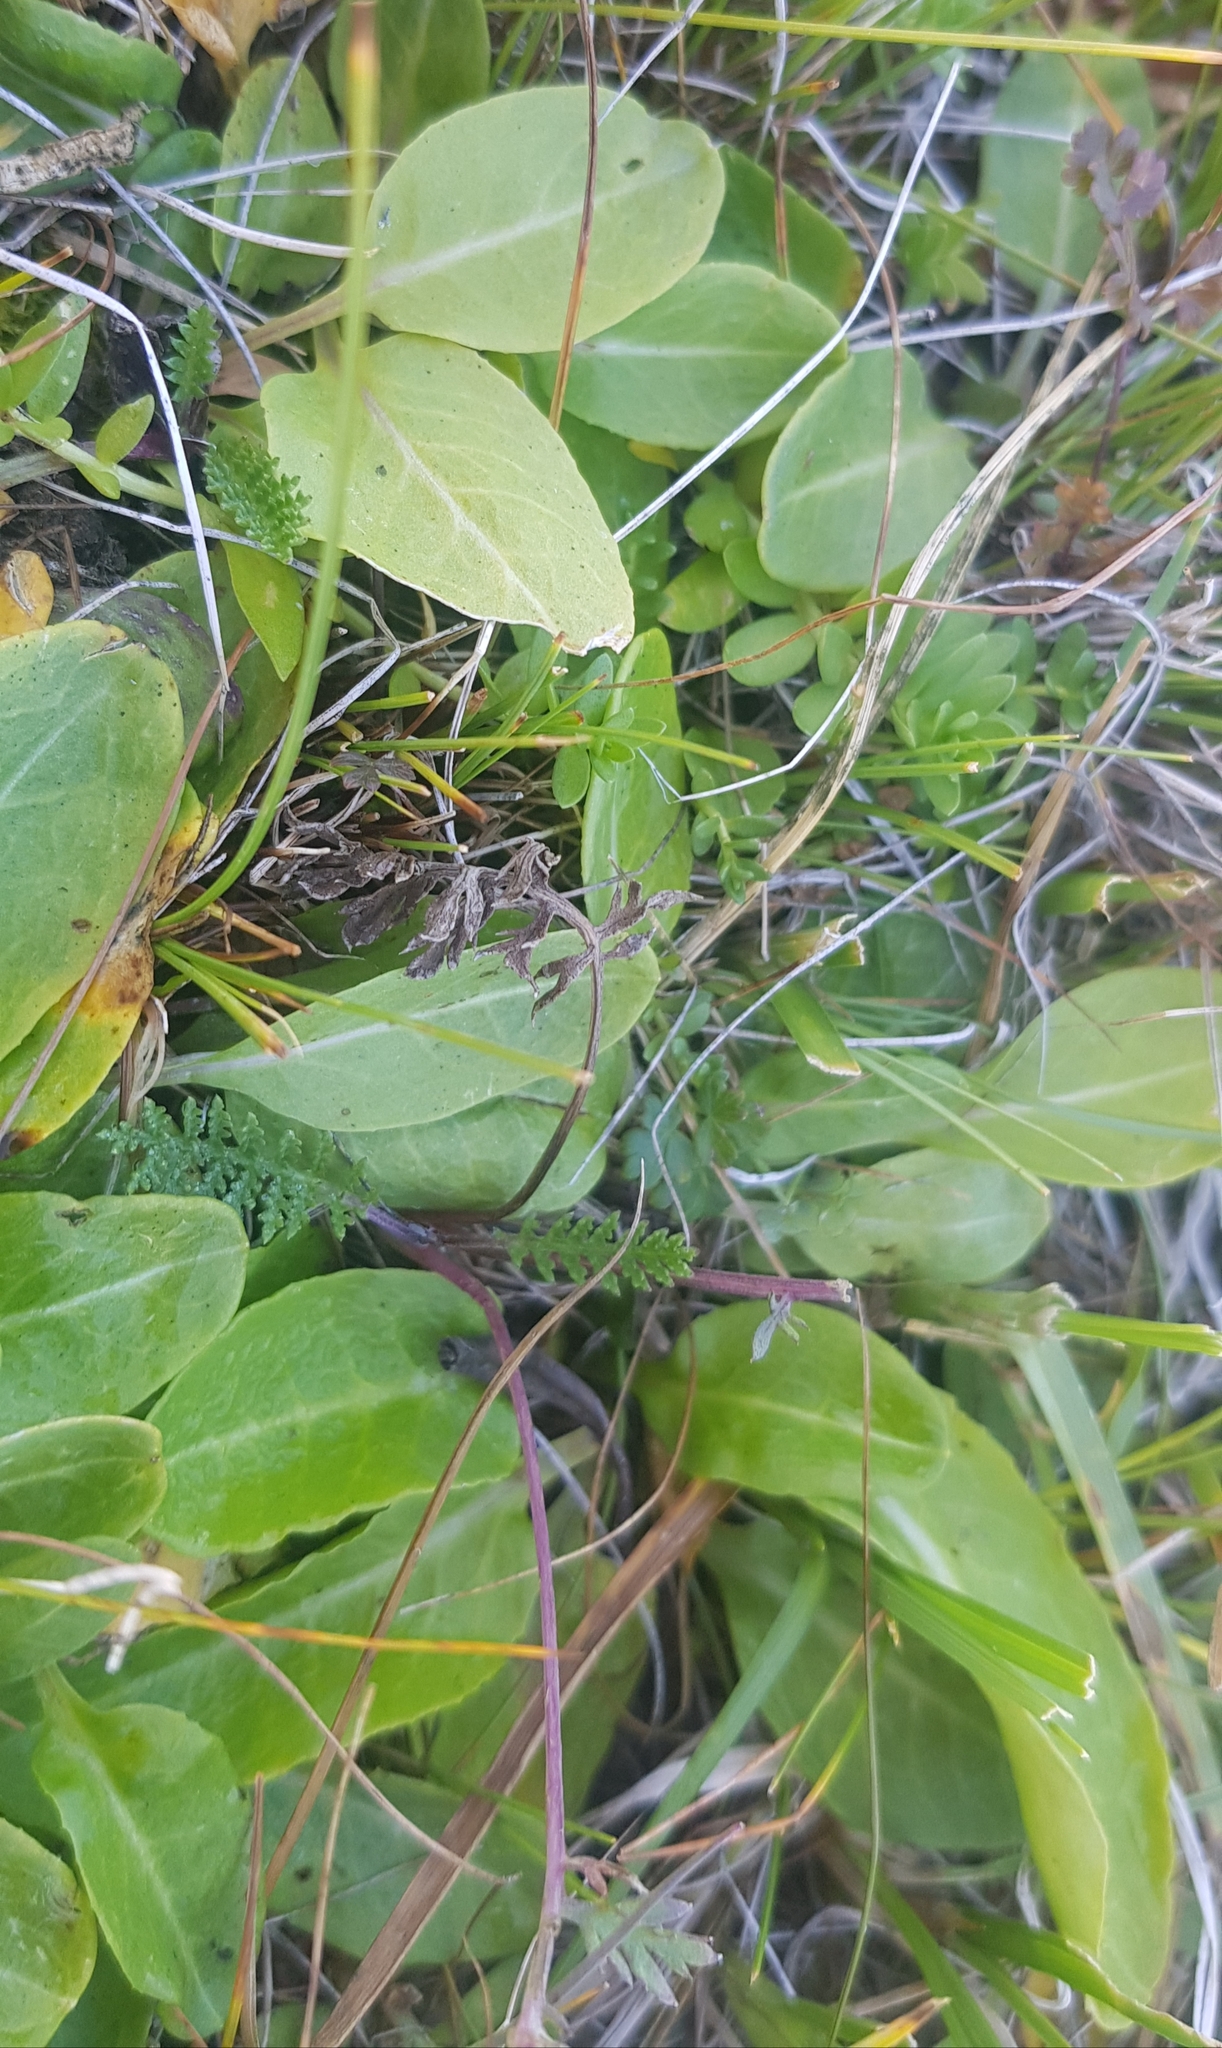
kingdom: Plantae
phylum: Tracheophyta
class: Magnoliopsida
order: Saxifragales
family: Saxifragaceae
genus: Micranthes
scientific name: Micranthes integrifolia
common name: Wholeleaf saxifrage
